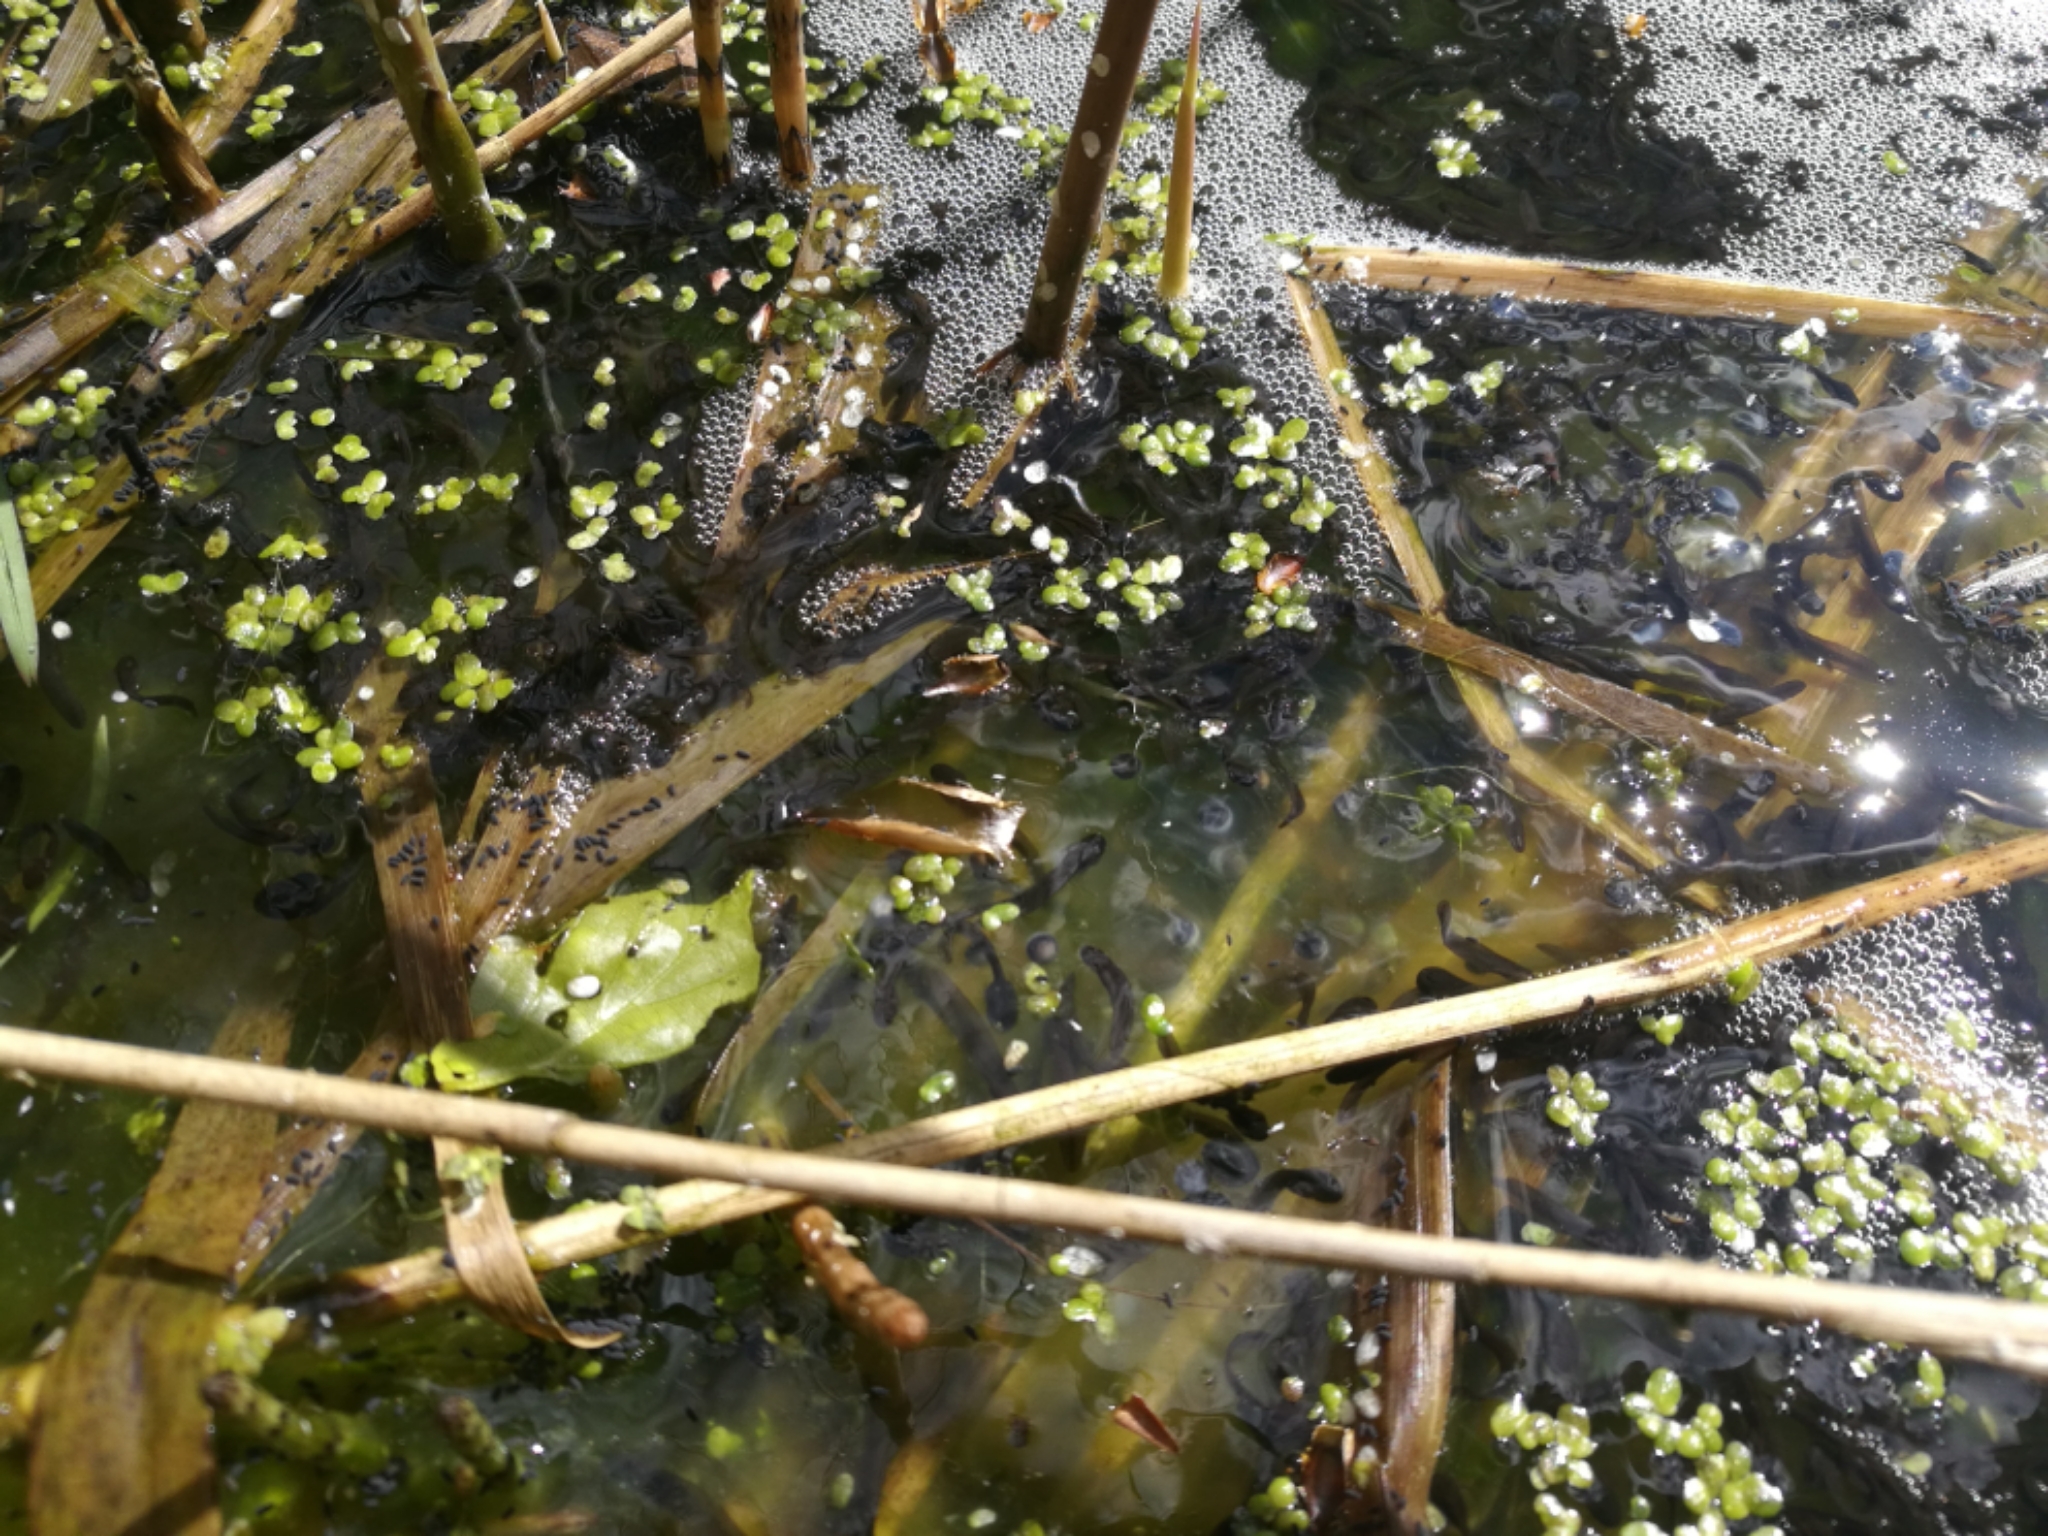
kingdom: Animalia
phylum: Chordata
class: Amphibia
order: Anura
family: Ranidae
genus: Rana
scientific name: Rana temporaria
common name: Common frog
